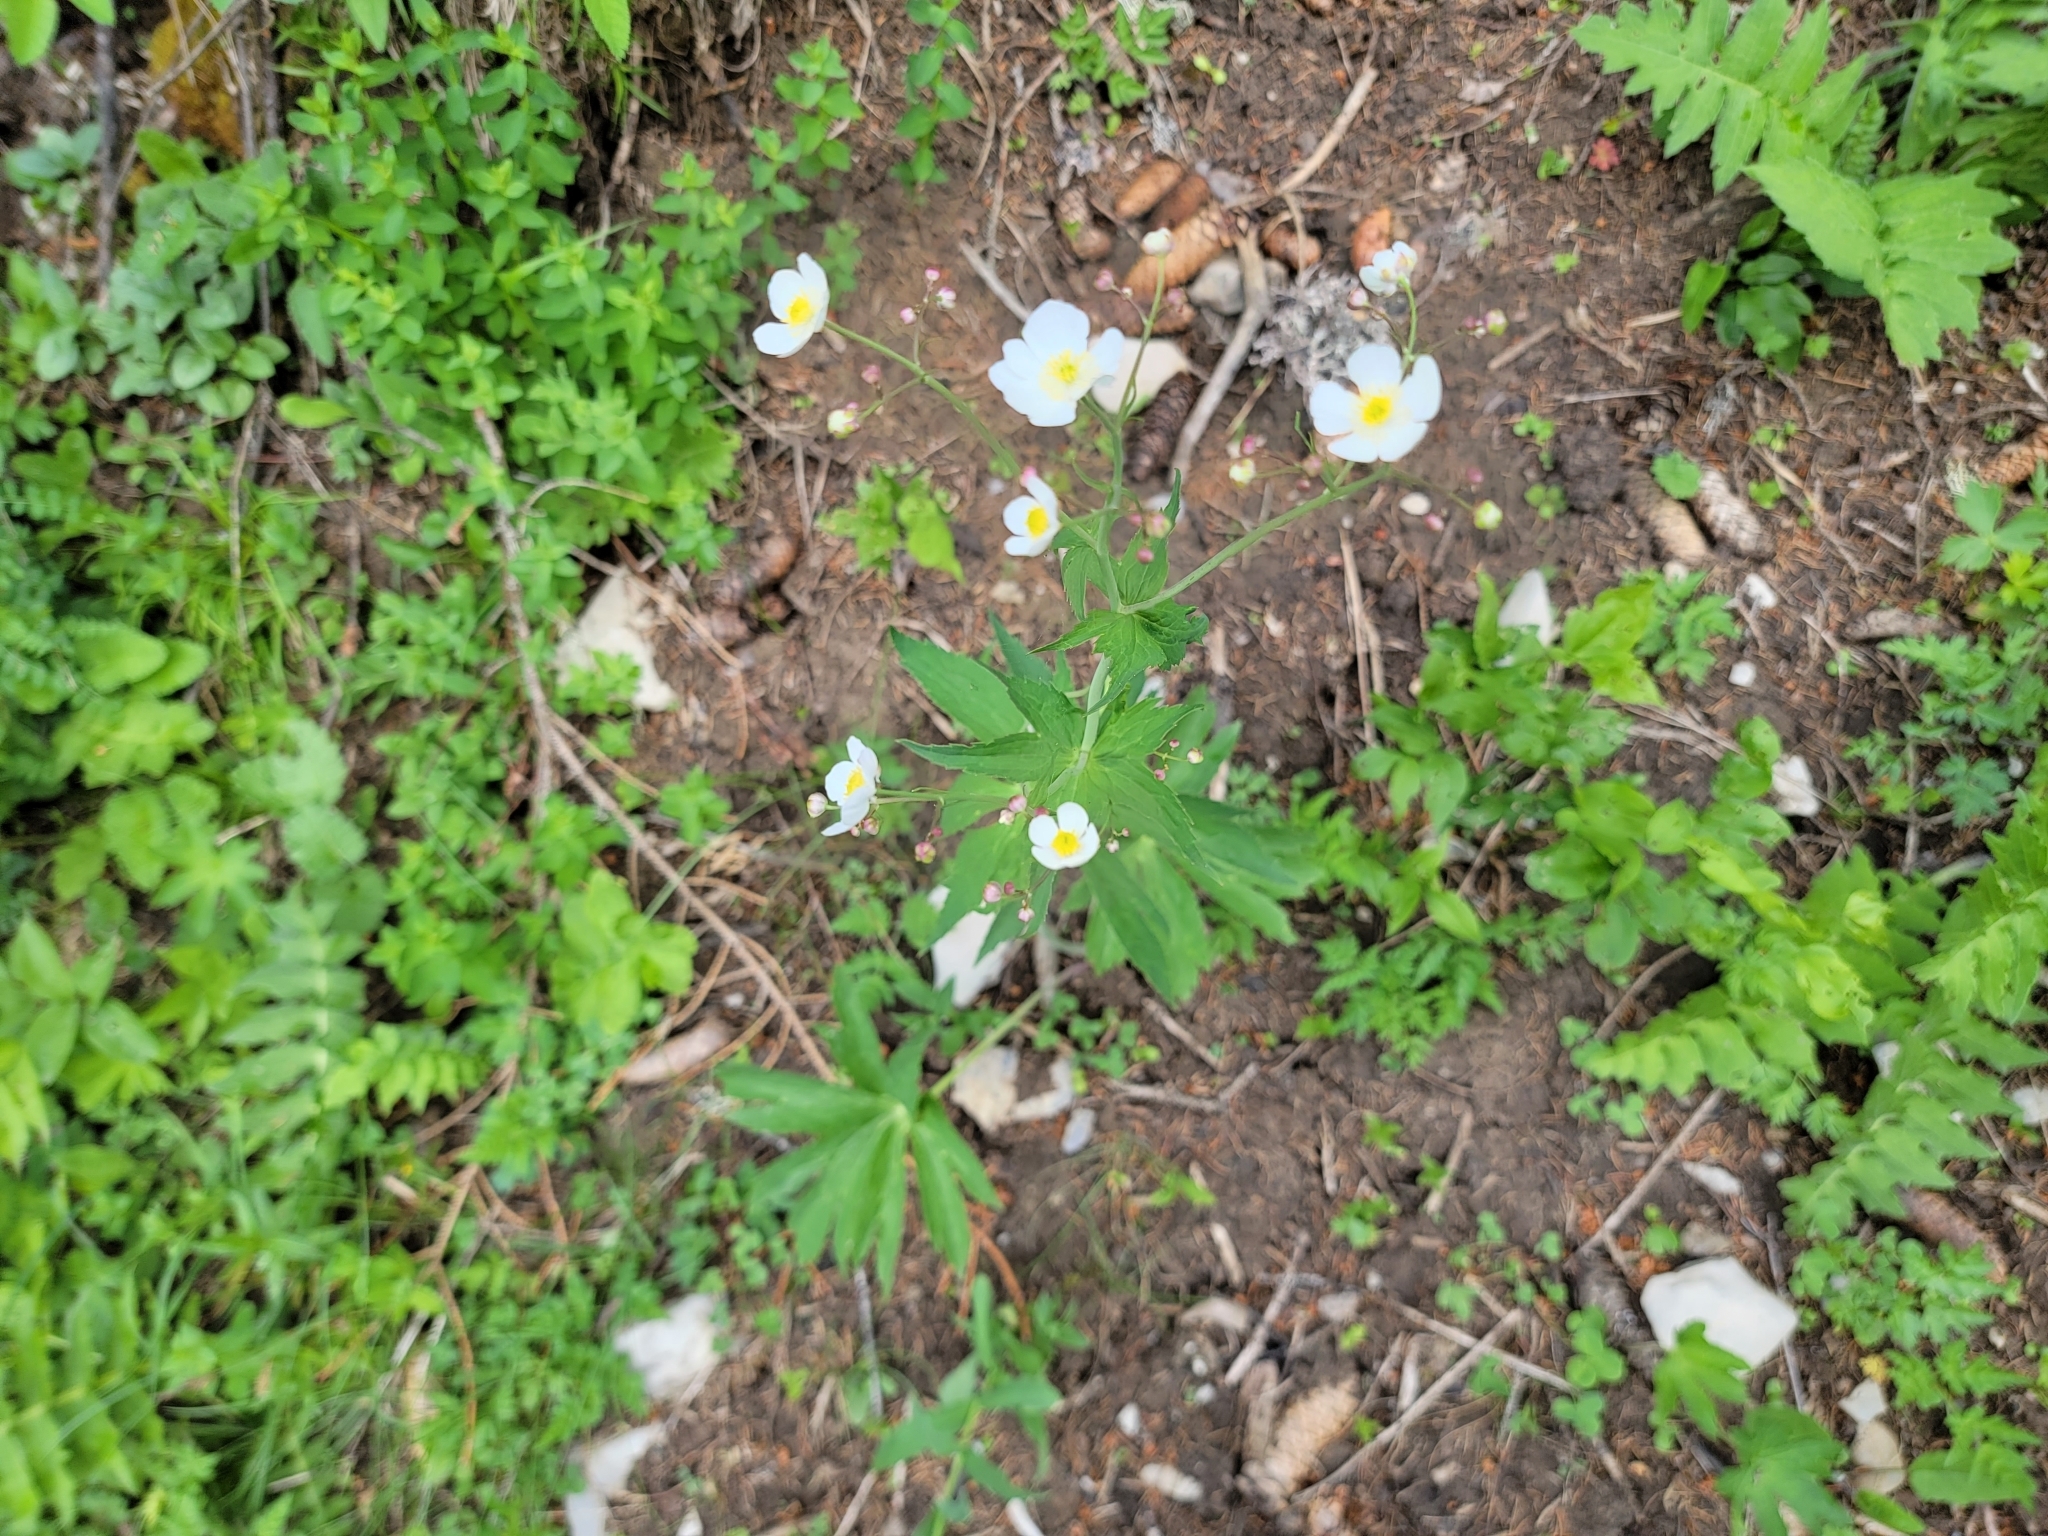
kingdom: Plantae
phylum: Tracheophyta
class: Magnoliopsida
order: Ranunculales
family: Ranunculaceae
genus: Ranunculus
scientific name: Ranunculus platanifolius
